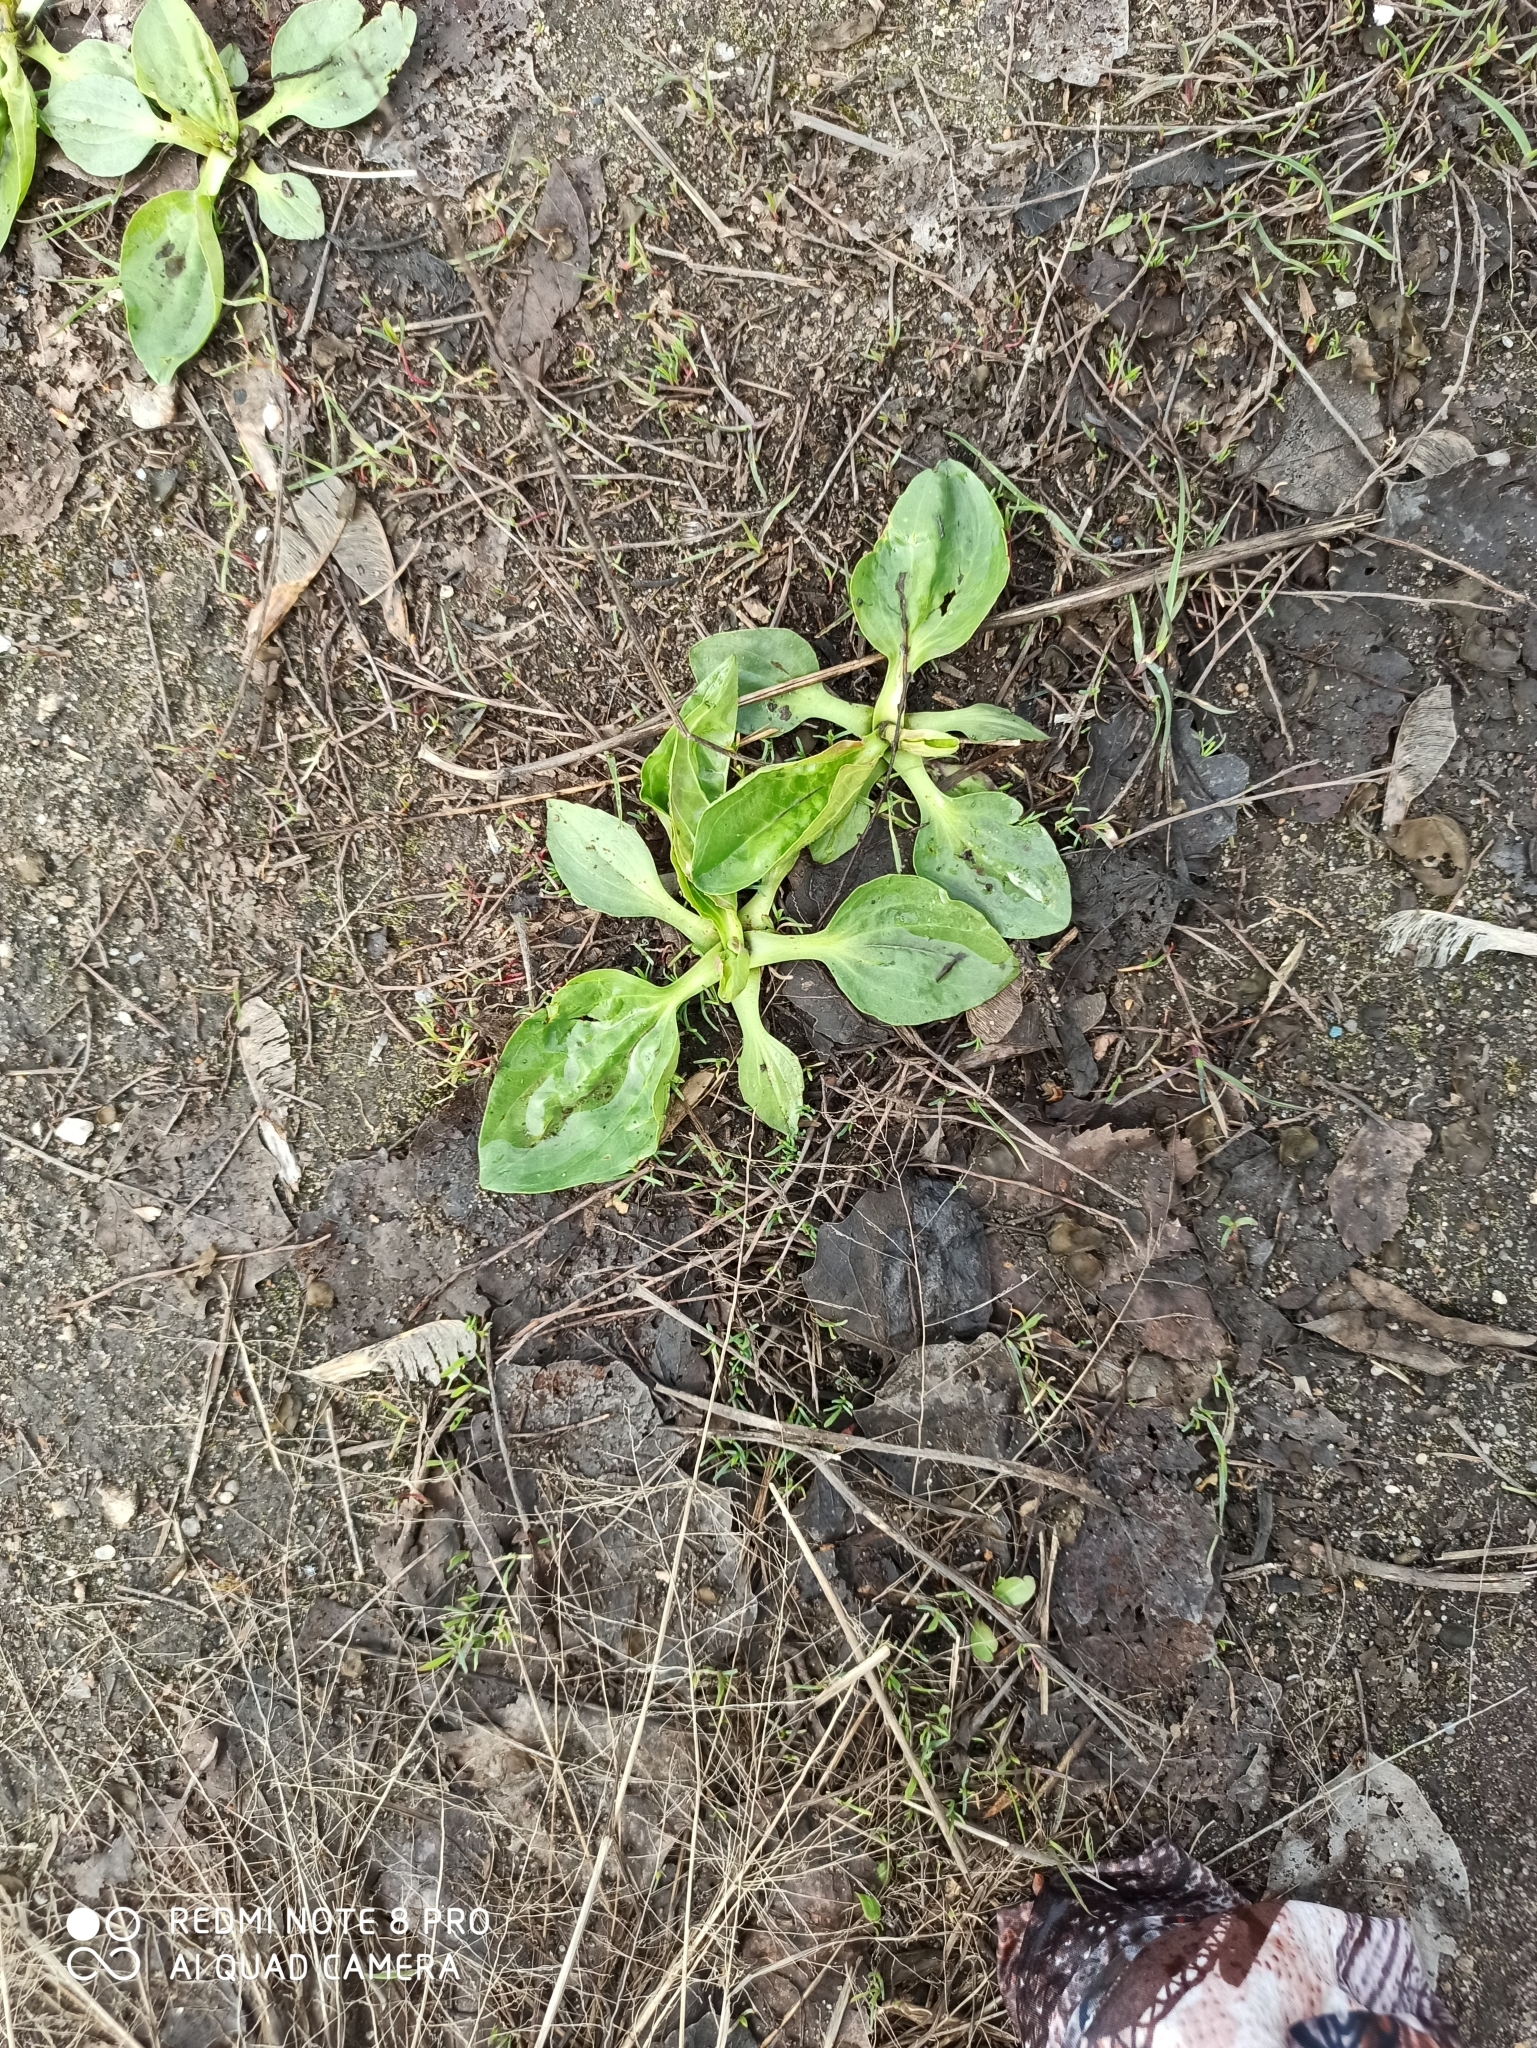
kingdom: Plantae
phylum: Tracheophyta
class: Magnoliopsida
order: Lamiales
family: Plantaginaceae
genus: Plantago
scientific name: Plantago major
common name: Common plantain
